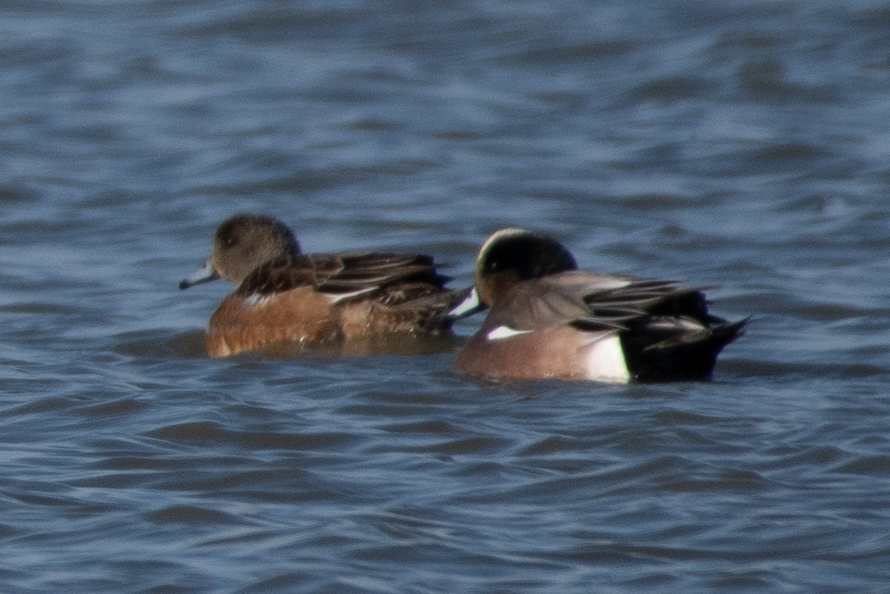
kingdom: Animalia
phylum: Chordata
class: Aves
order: Anseriformes
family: Anatidae
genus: Mareca
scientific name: Mareca americana
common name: American wigeon
